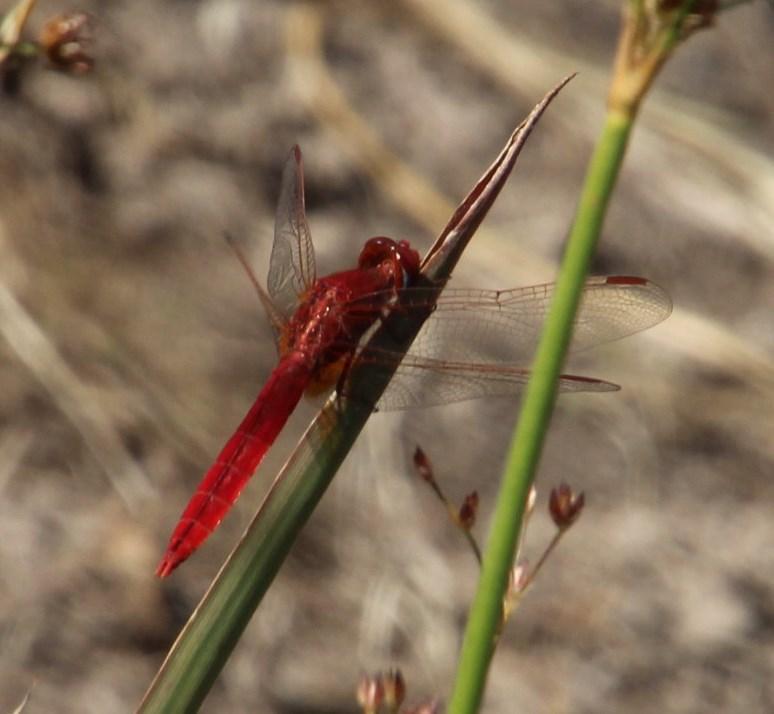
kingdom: Animalia
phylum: Arthropoda
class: Insecta
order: Odonata
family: Libellulidae
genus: Crocothemis
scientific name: Crocothemis erythraea
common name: Scarlet dragonfly
